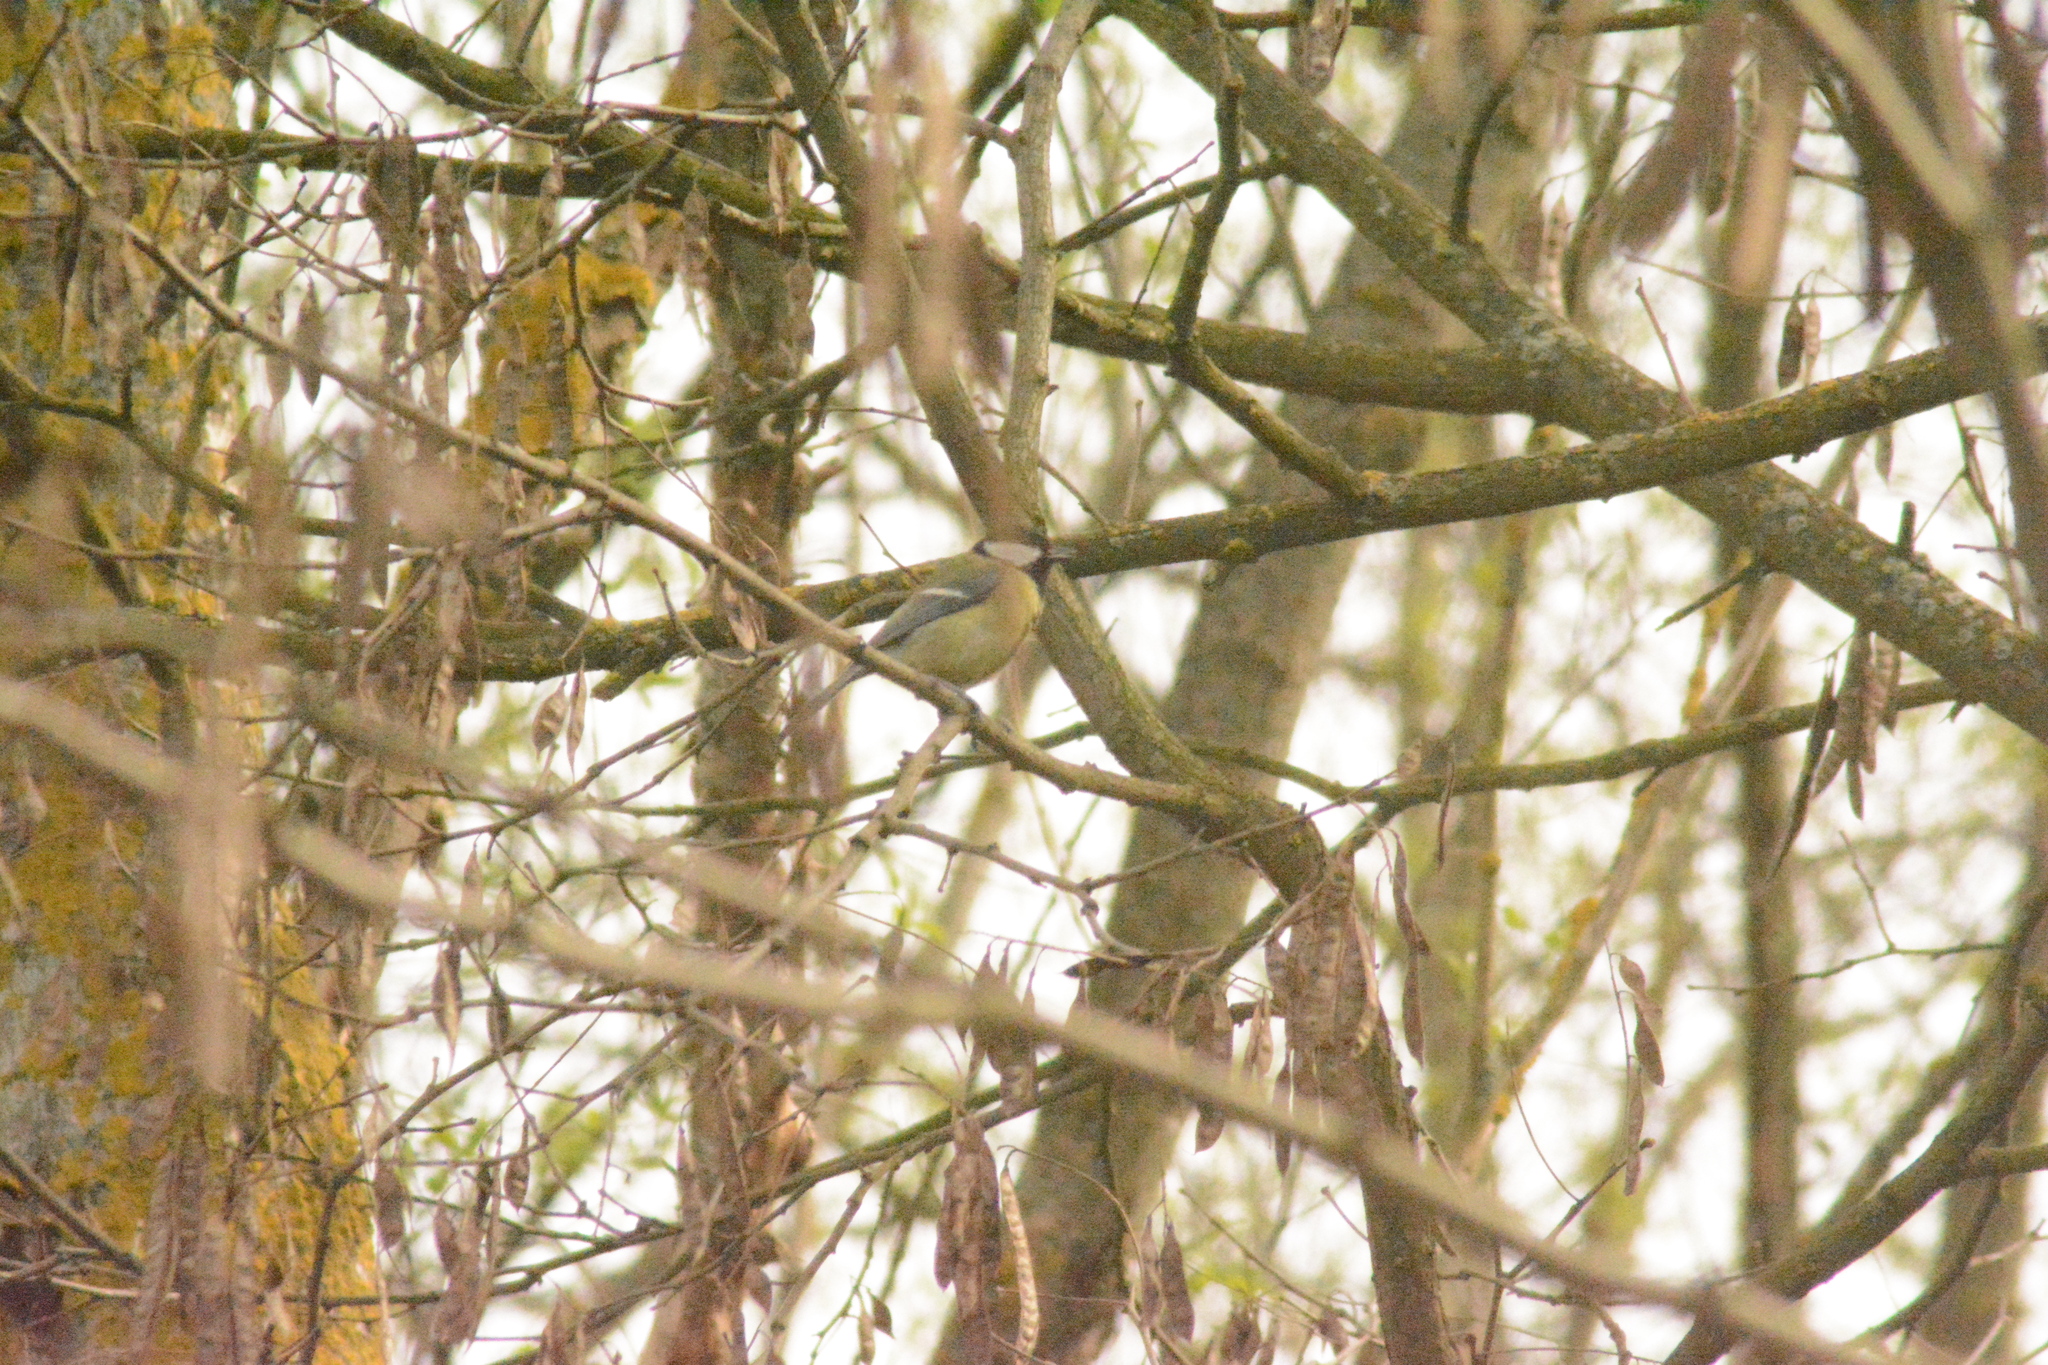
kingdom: Animalia
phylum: Chordata
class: Aves
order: Passeriformes
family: Paridae
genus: Parus
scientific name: Parus major
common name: Great tit
